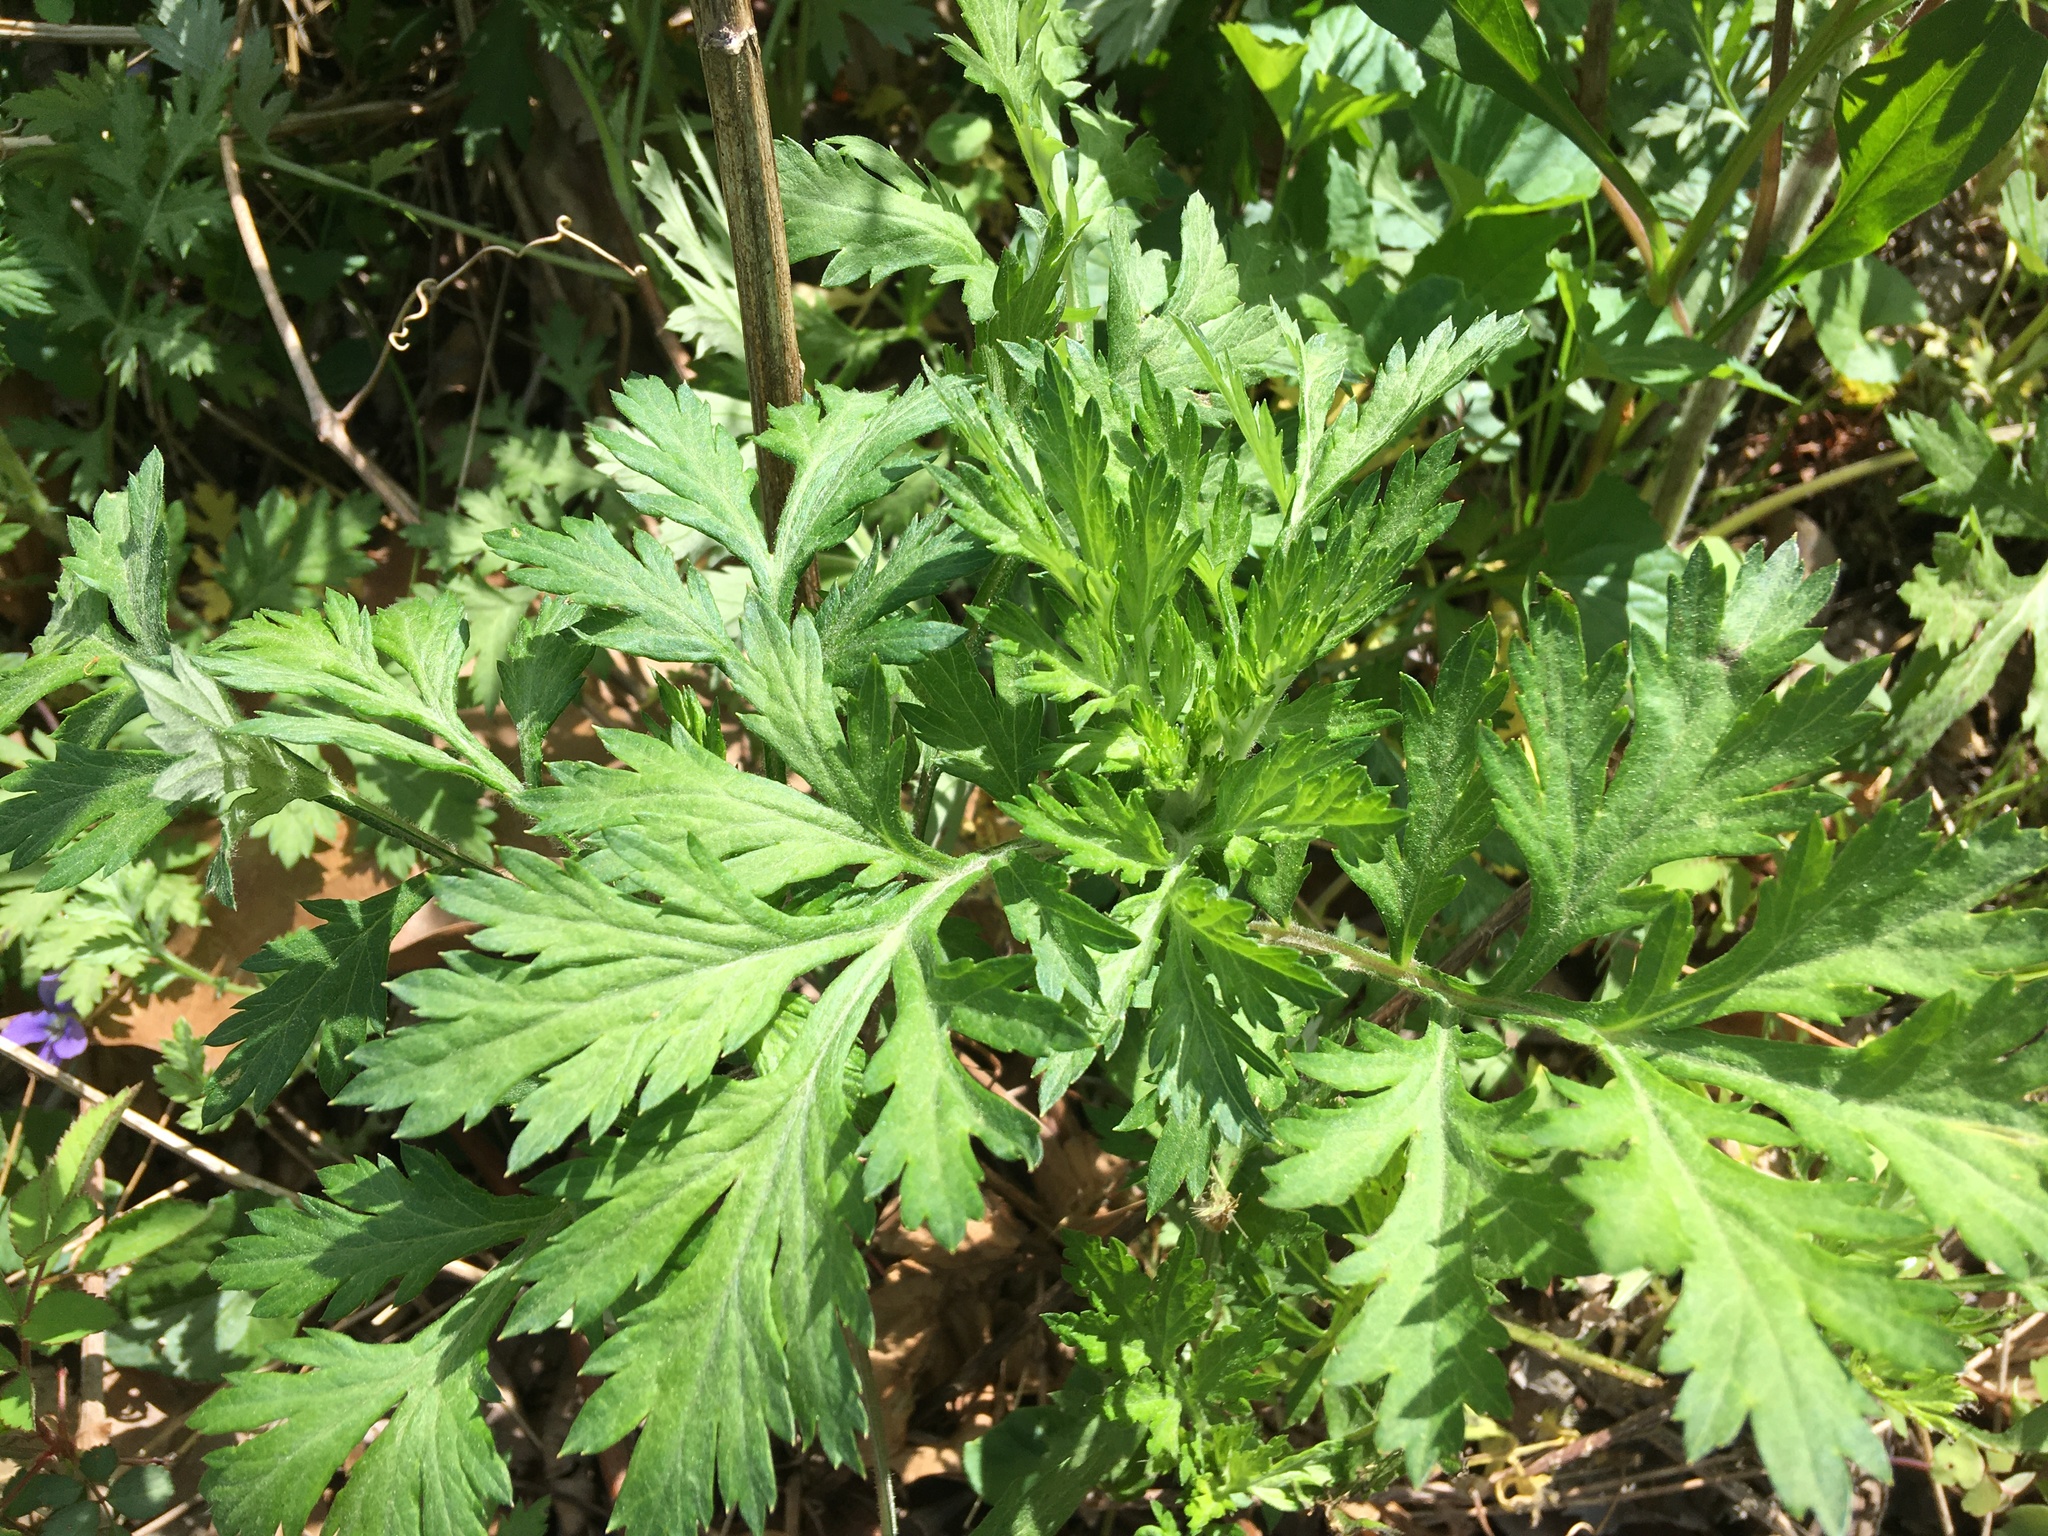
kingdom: Plantae
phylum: Tracheophyta
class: Magnoliopsida
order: Asterales
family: Asteraceae
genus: Artemisia
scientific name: Artemisia vulgaris
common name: Mugwort
